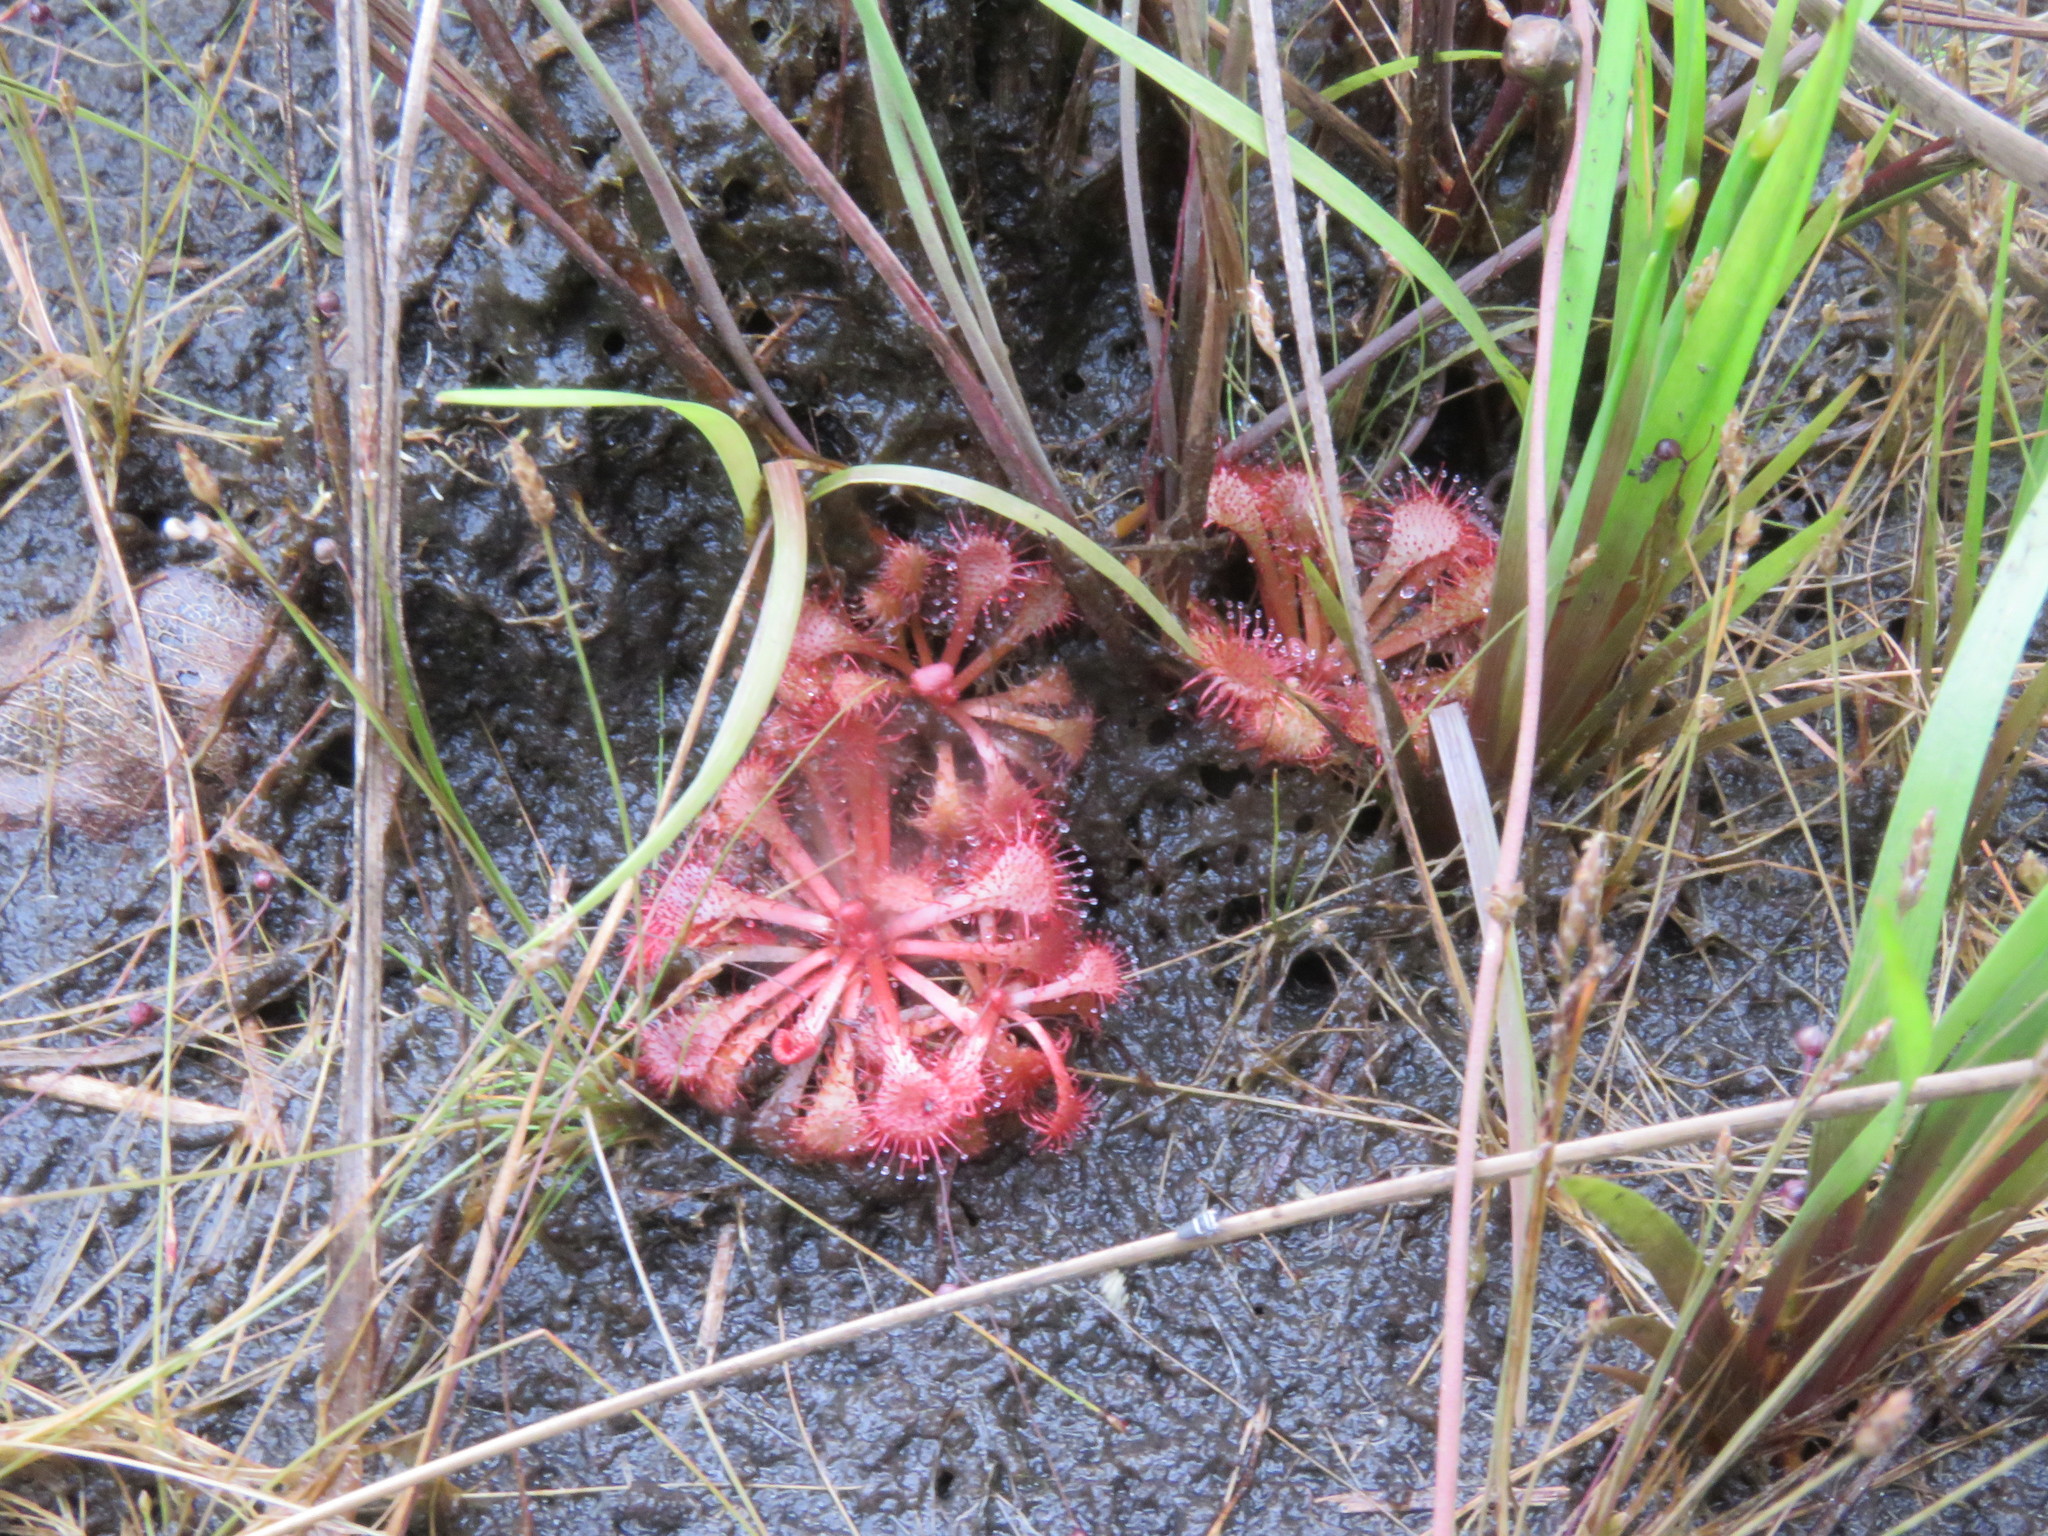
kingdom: Plantae
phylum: Tracheophyta
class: Magnoliopsida
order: Caryophyllales
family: Droseraceae
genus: Drosera
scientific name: Drosera cayennensis
